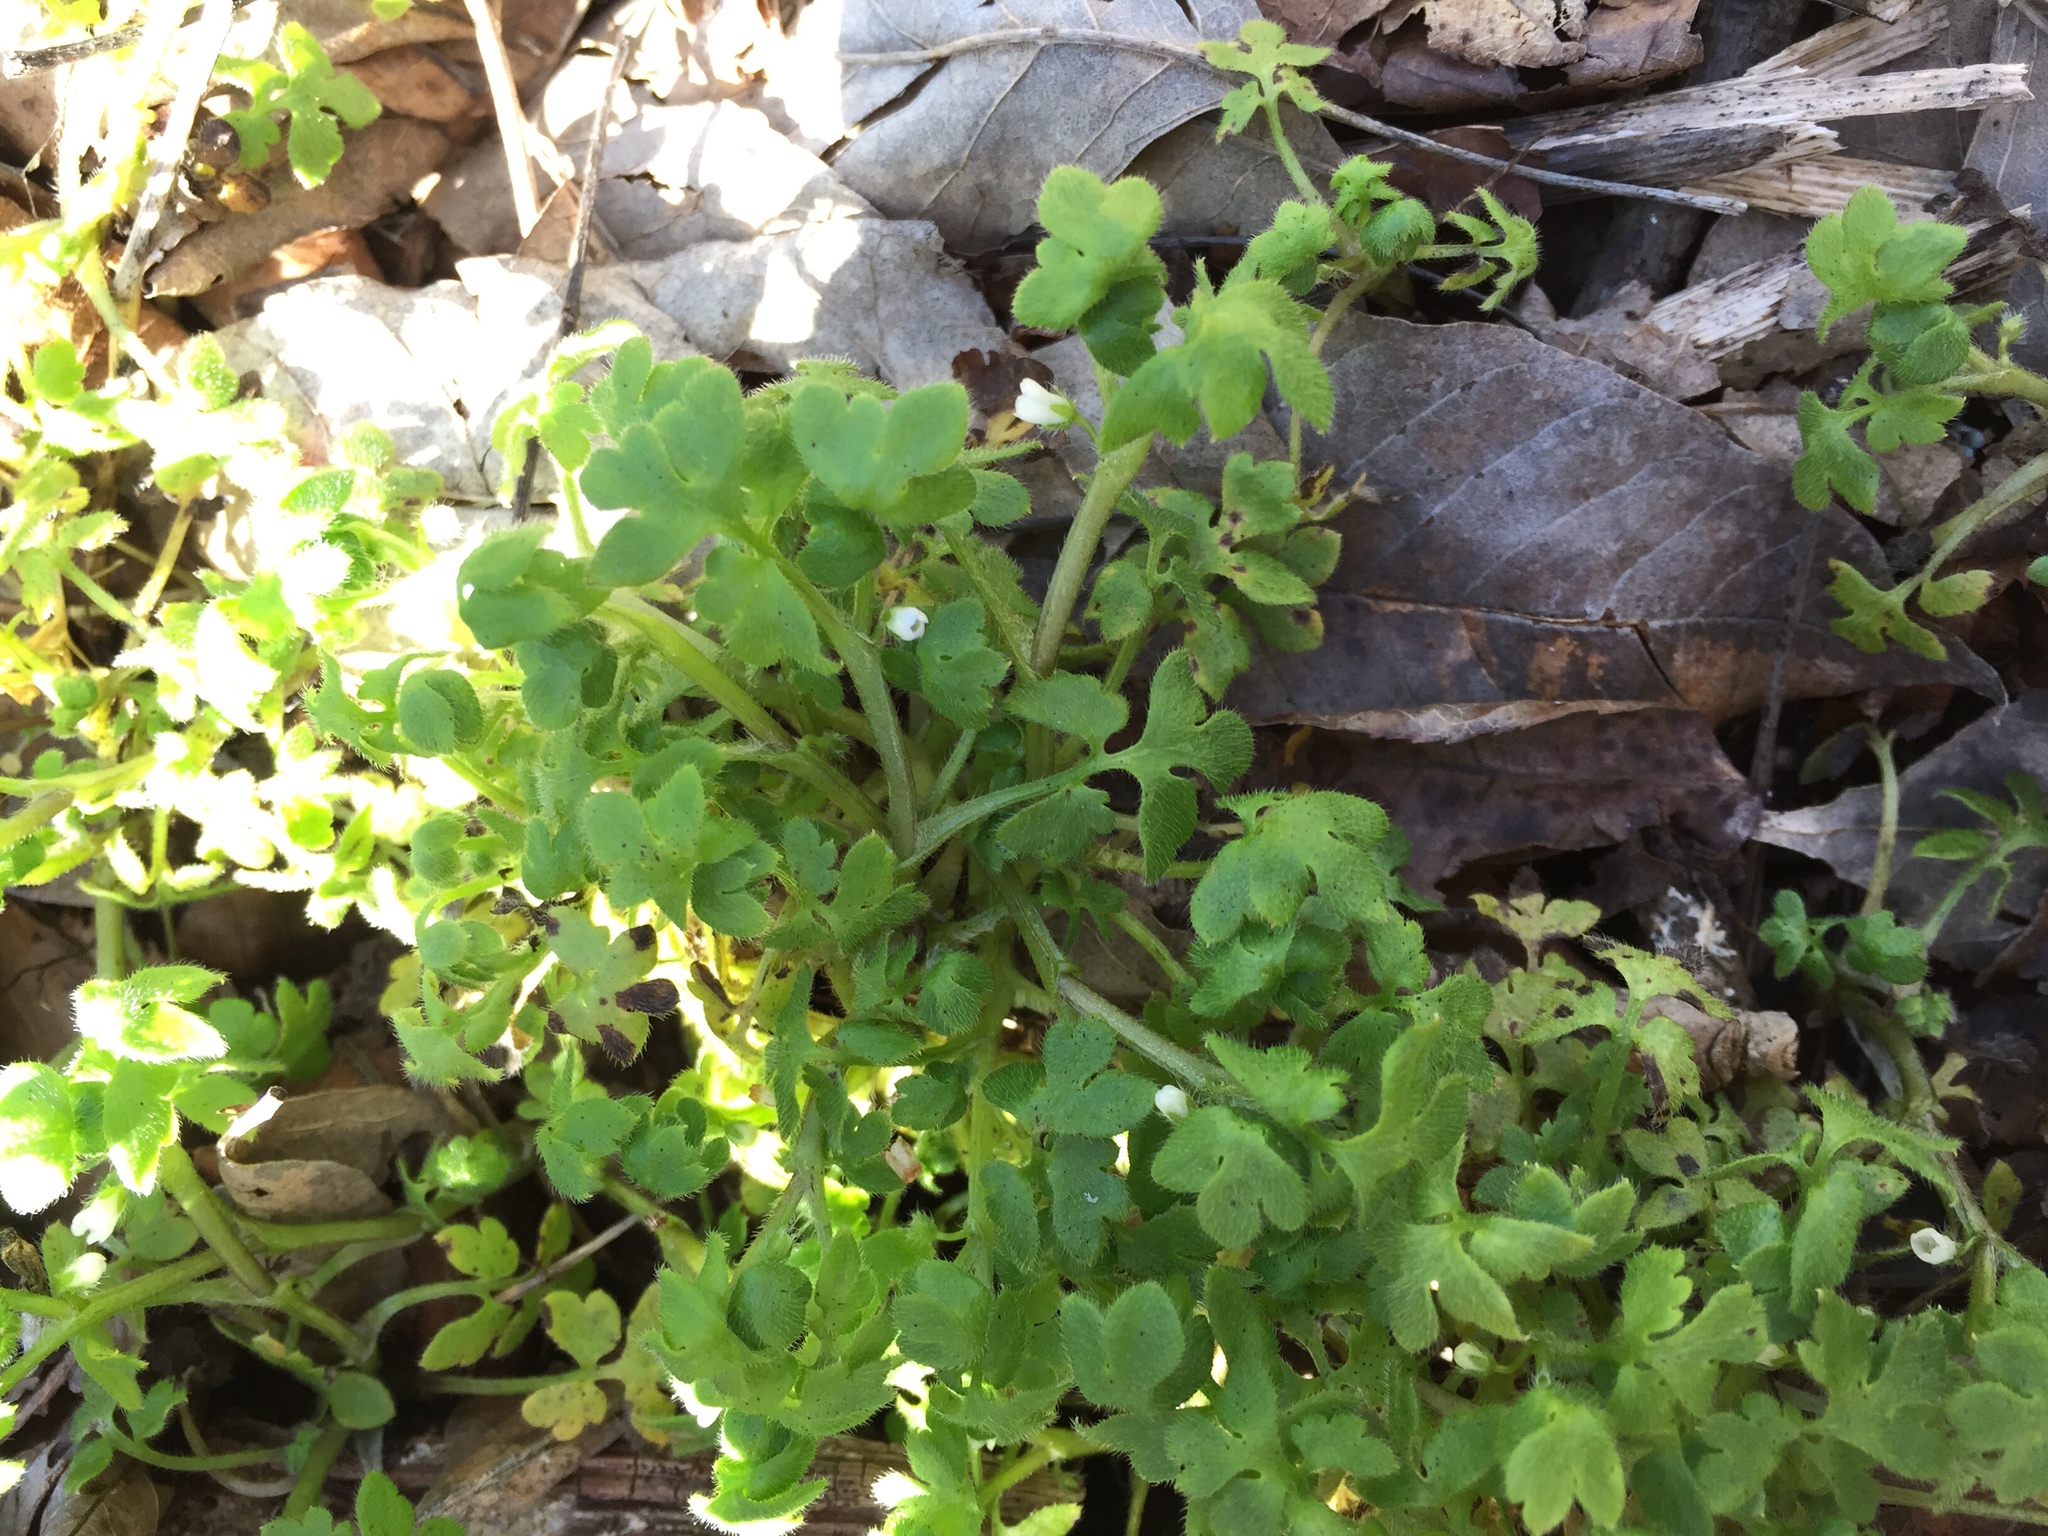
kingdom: Plantae
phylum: Tracheophyta
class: Magnoliopsida
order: Boraginales
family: Hydrophyllaceae
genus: Nemophila
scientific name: Nemophila aphylla
